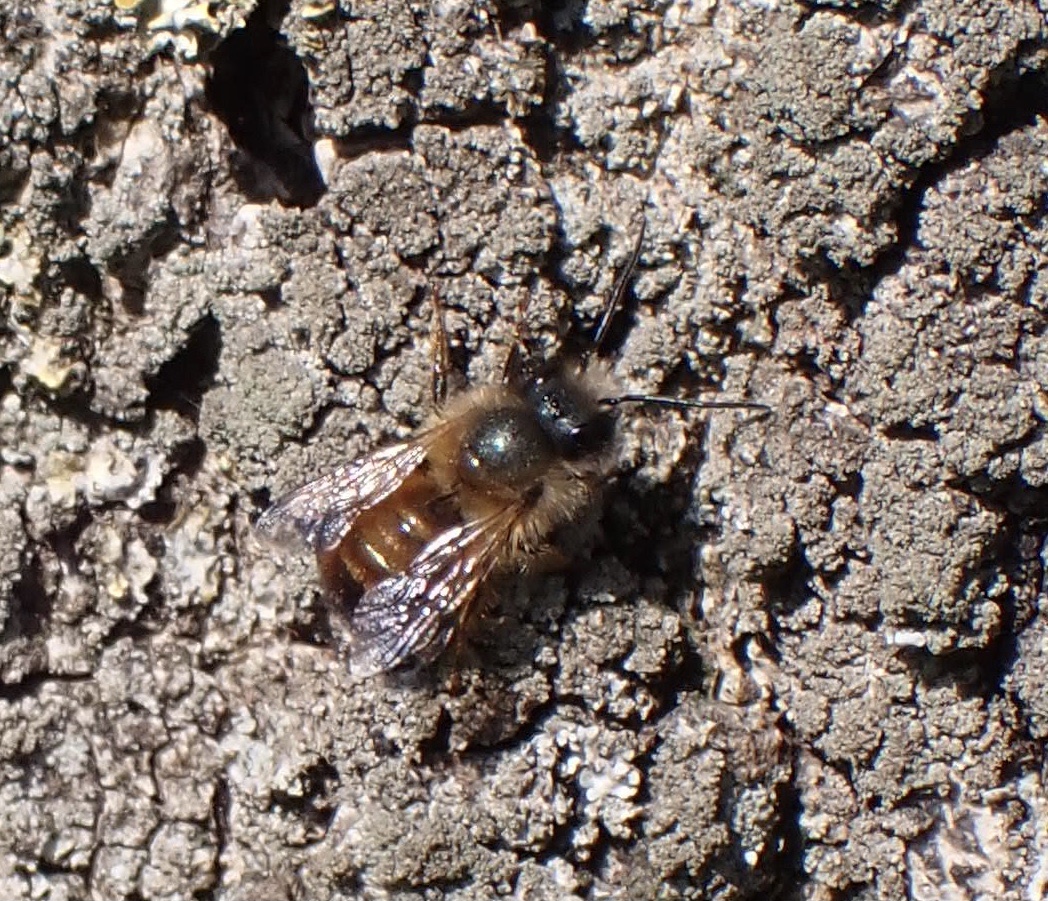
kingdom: Animalia
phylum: Arthropoda
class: Insecta
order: Hymenoptera
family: Megachilidae
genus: Osmia
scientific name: Osmia bicornis
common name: Red mason bee
